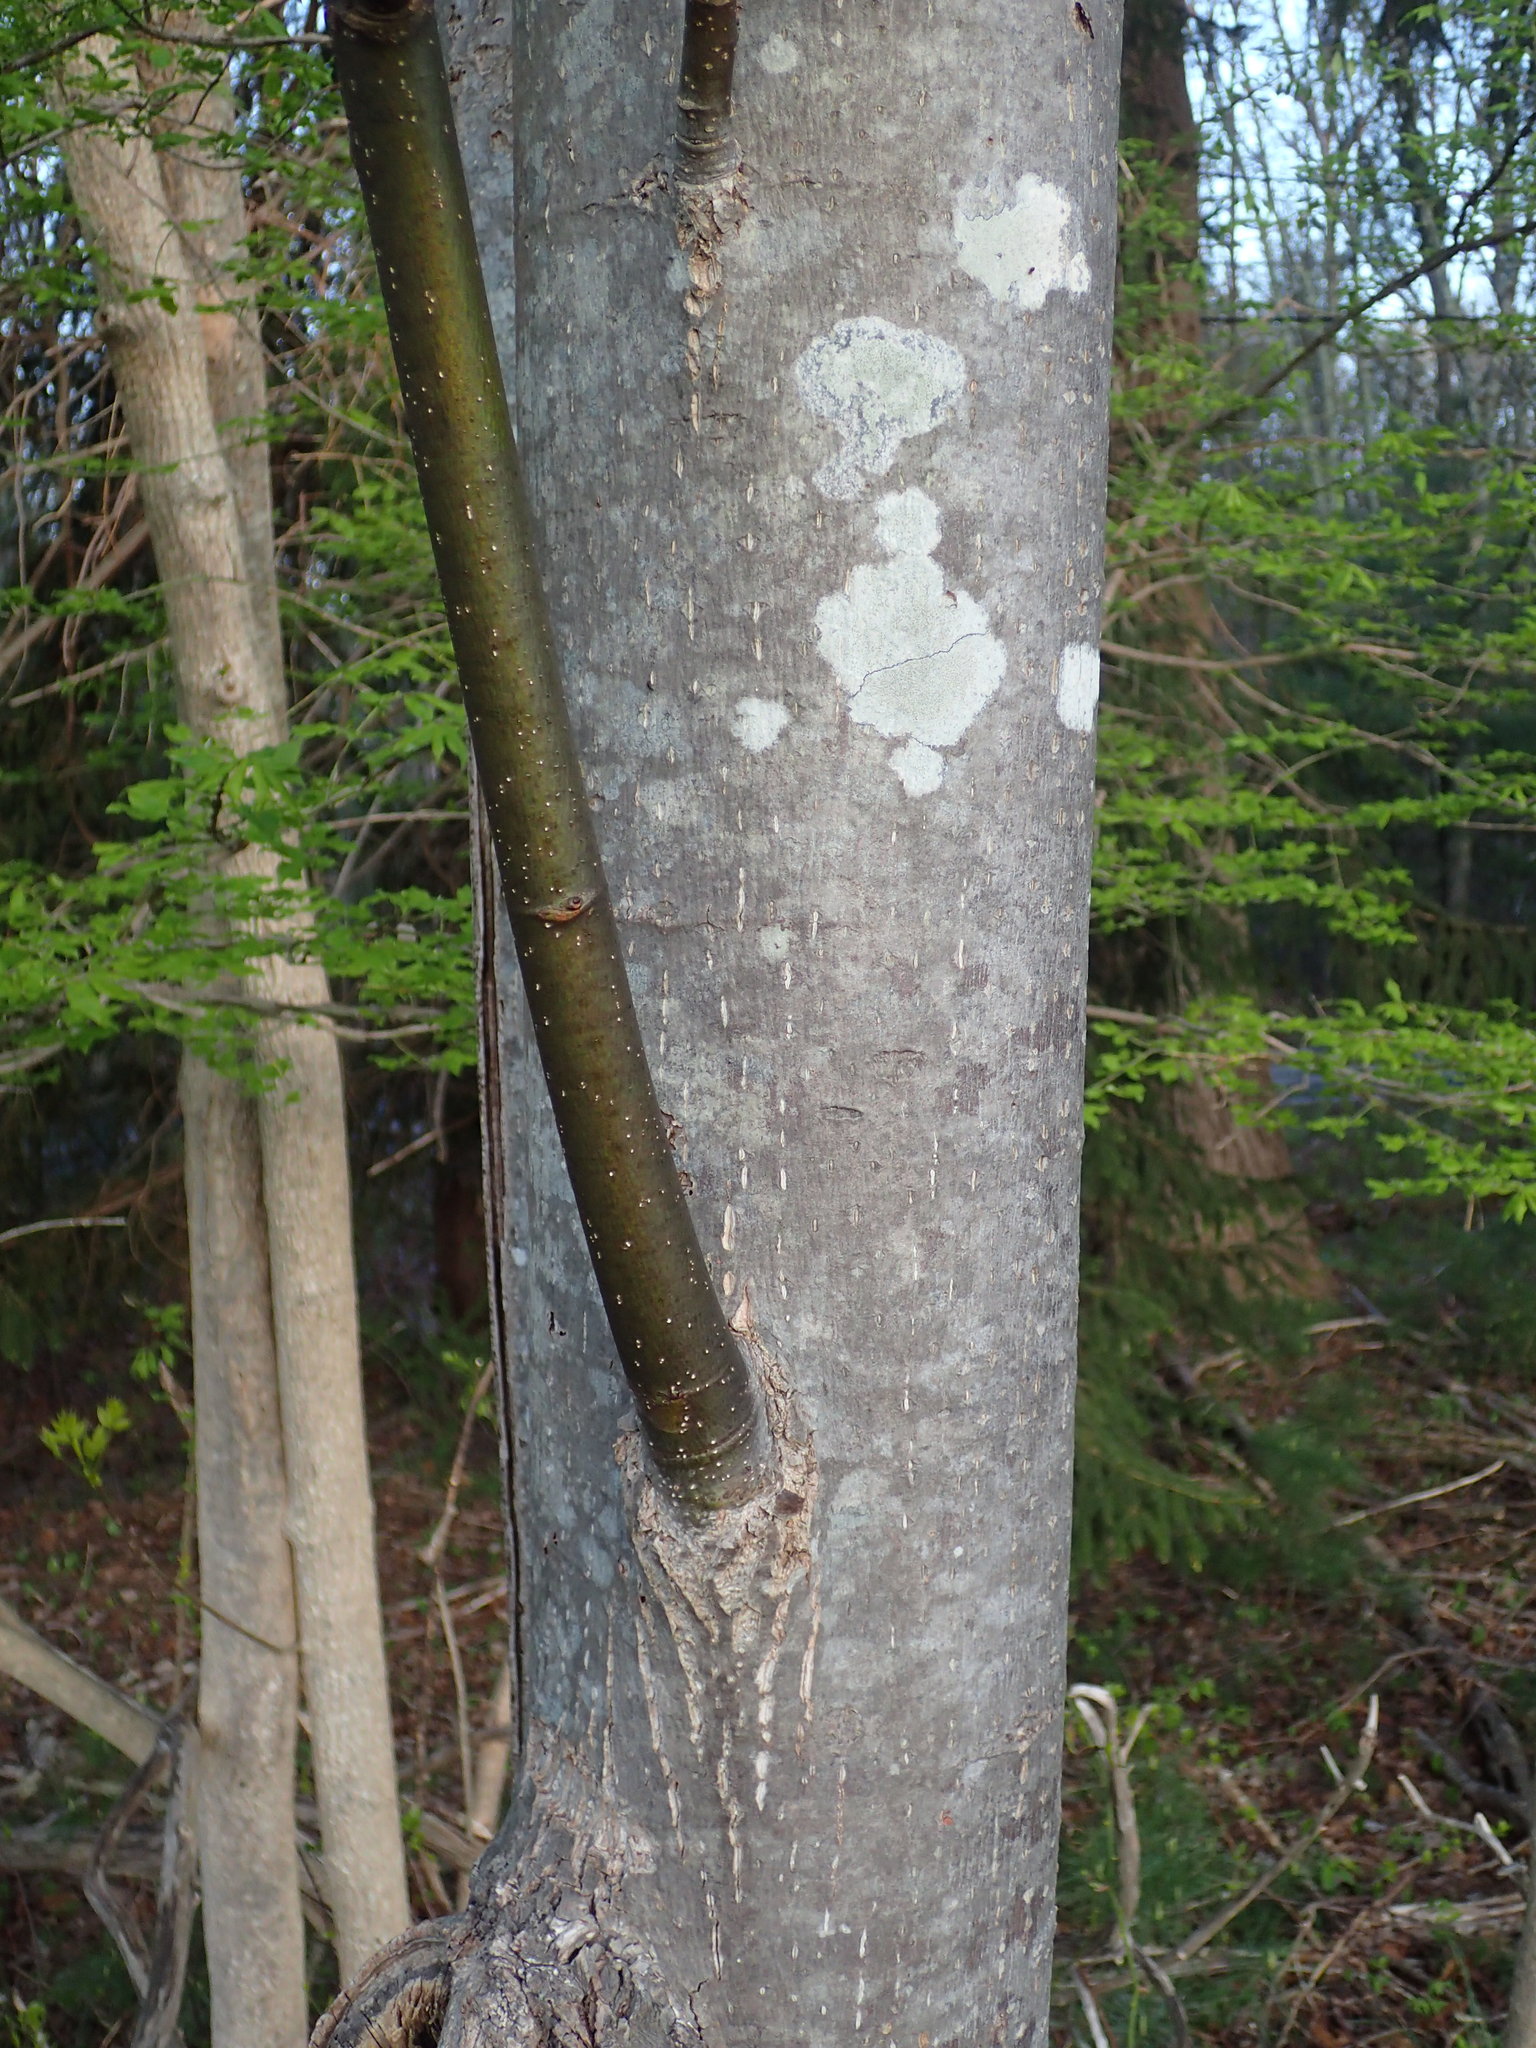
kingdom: Plantae
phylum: Tracheophyta
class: Magnoliopsida
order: Malvales
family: Malvaceae
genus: Tilia
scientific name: Tilia americana
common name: Basswood
